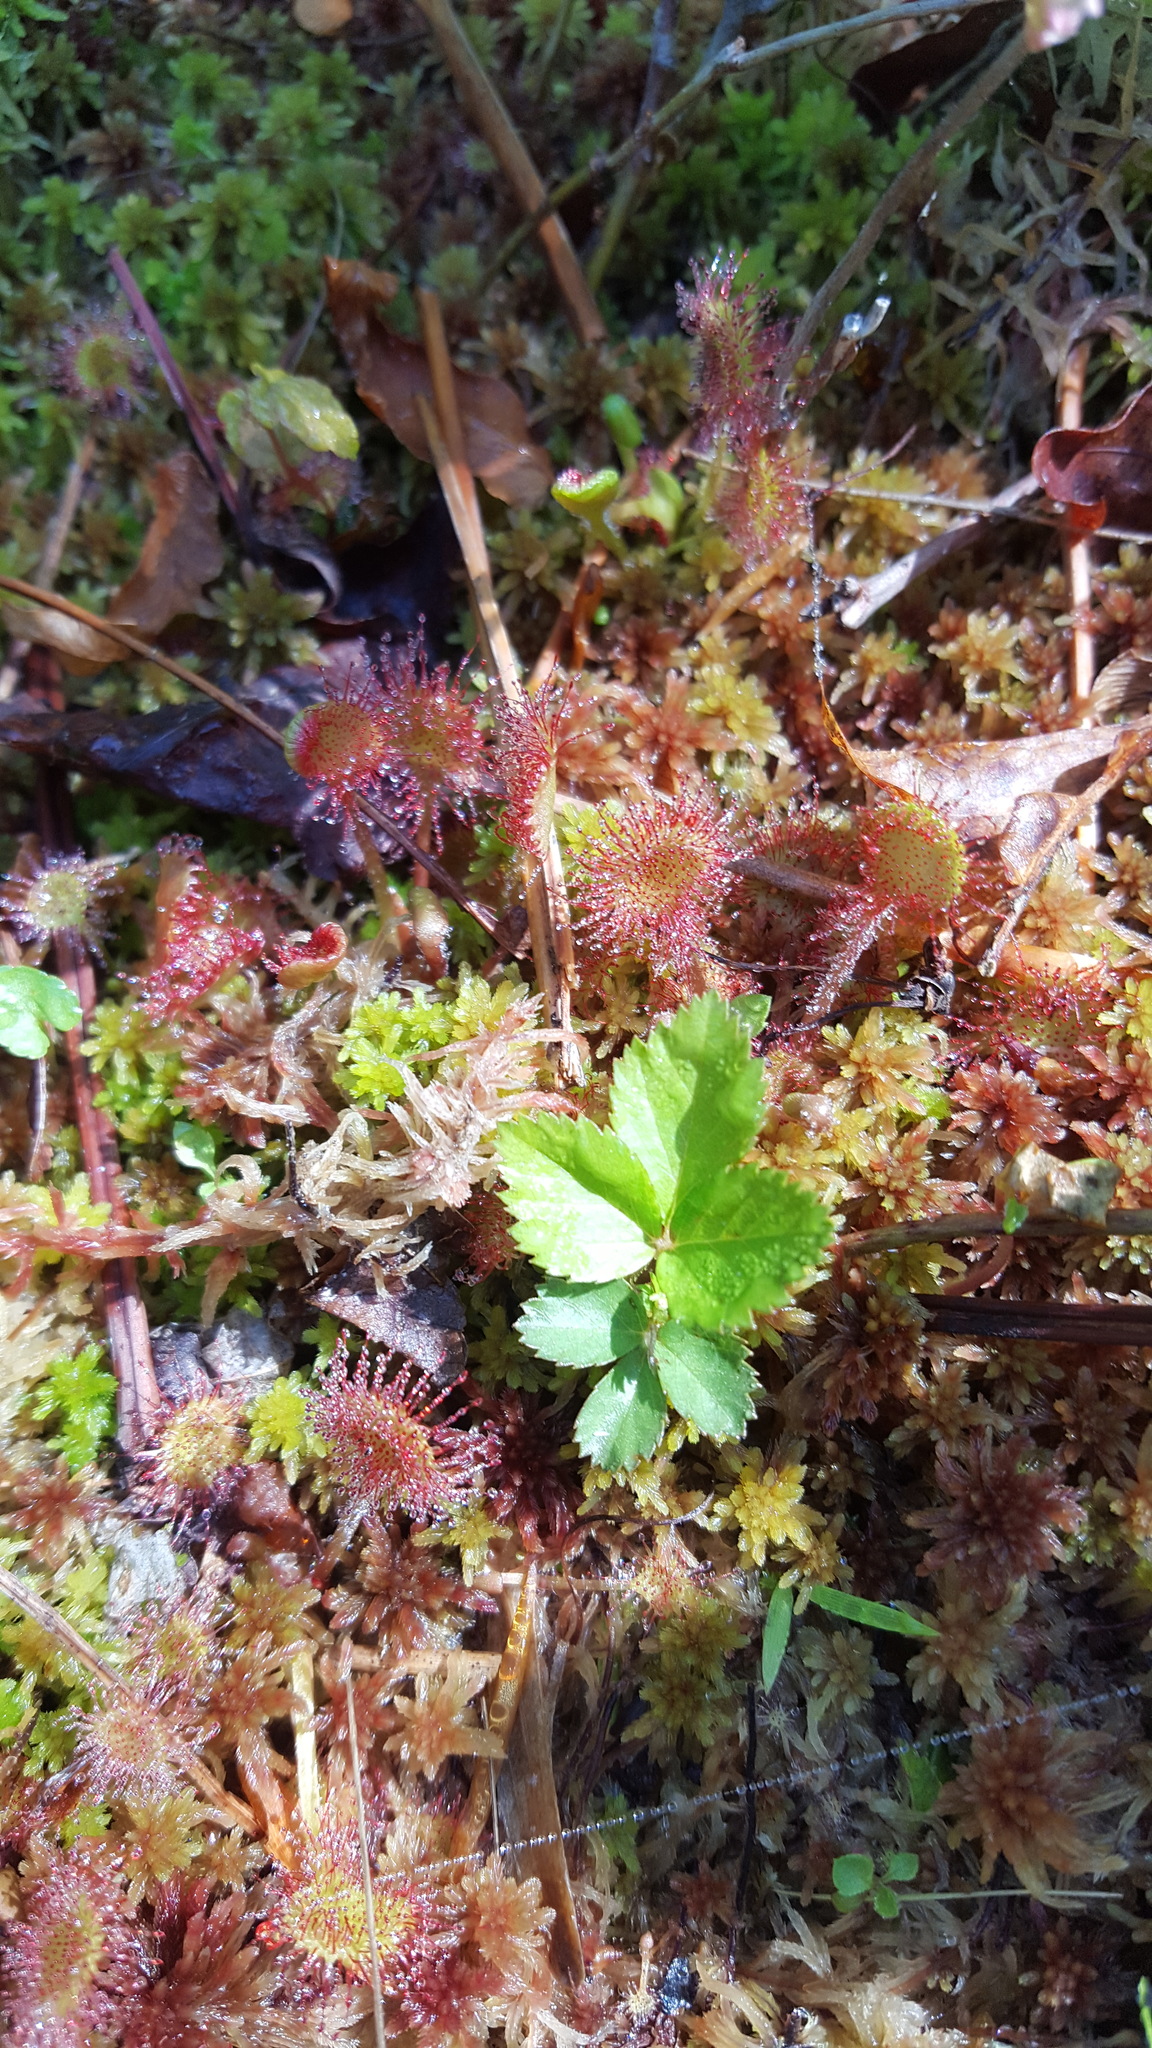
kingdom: Plantae
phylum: Tracheophyta
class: Magnoliopsida
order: Caryophyllales
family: Droseraceae
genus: Drosera
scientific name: Drosera rotundifolia
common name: Round-leaved sundew
